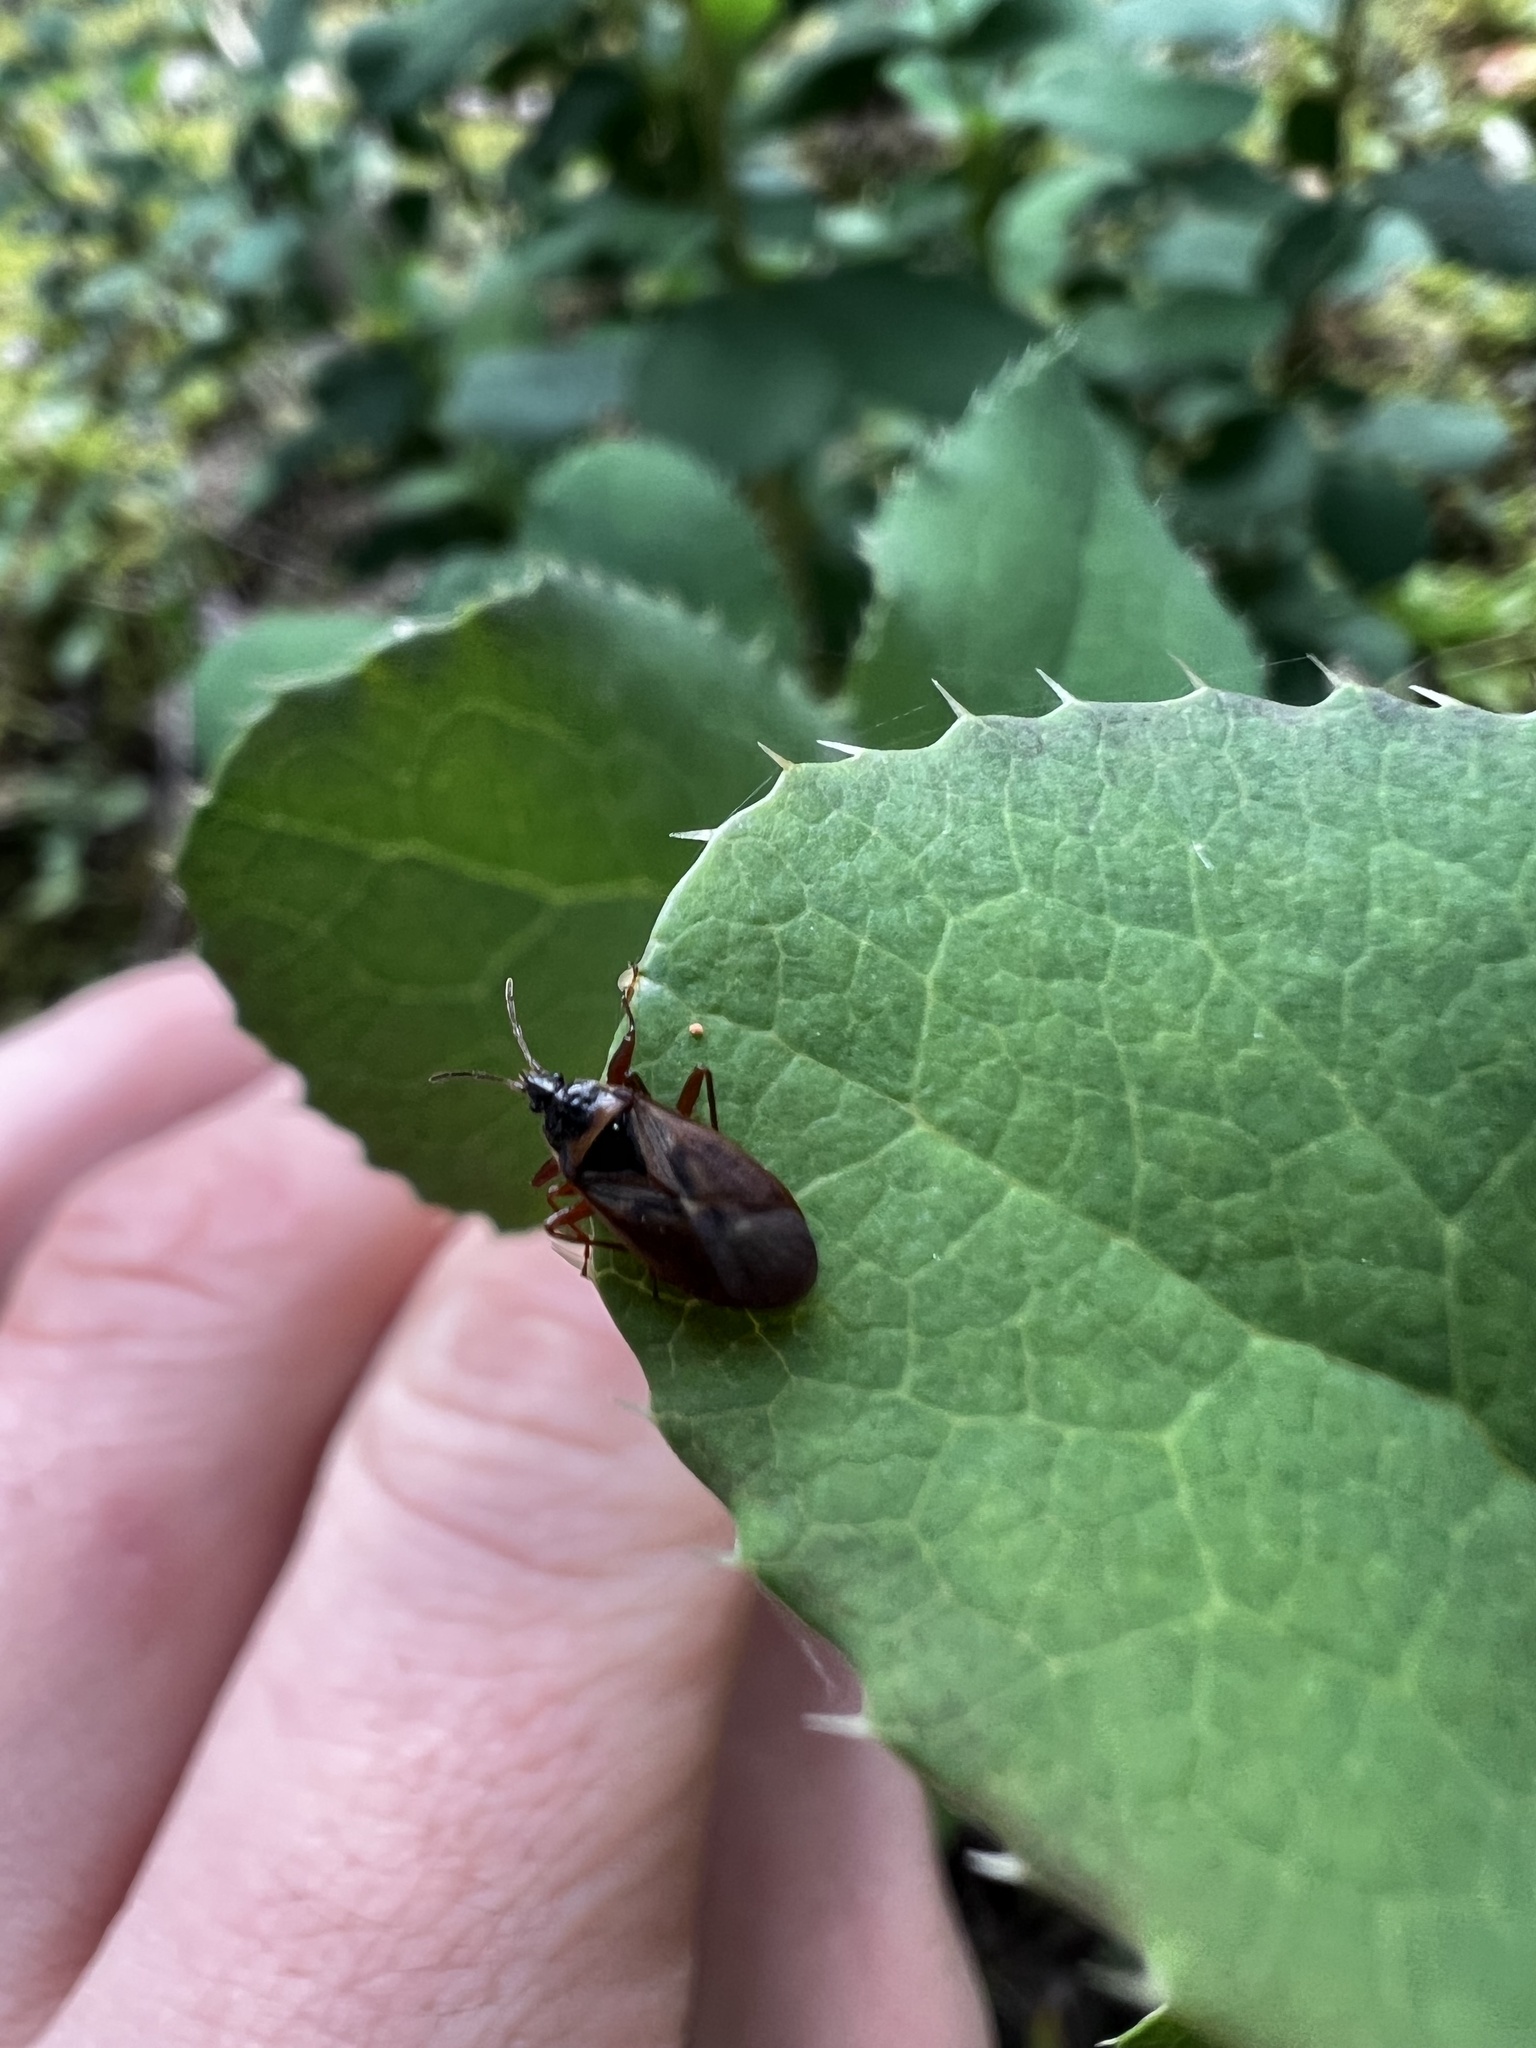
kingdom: Animalia
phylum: Arthropoda
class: Insecta
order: Hemiptera
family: Rhyparochromidae
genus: Gastrodes
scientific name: Gastrodes abietum
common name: Spruce cone bug
